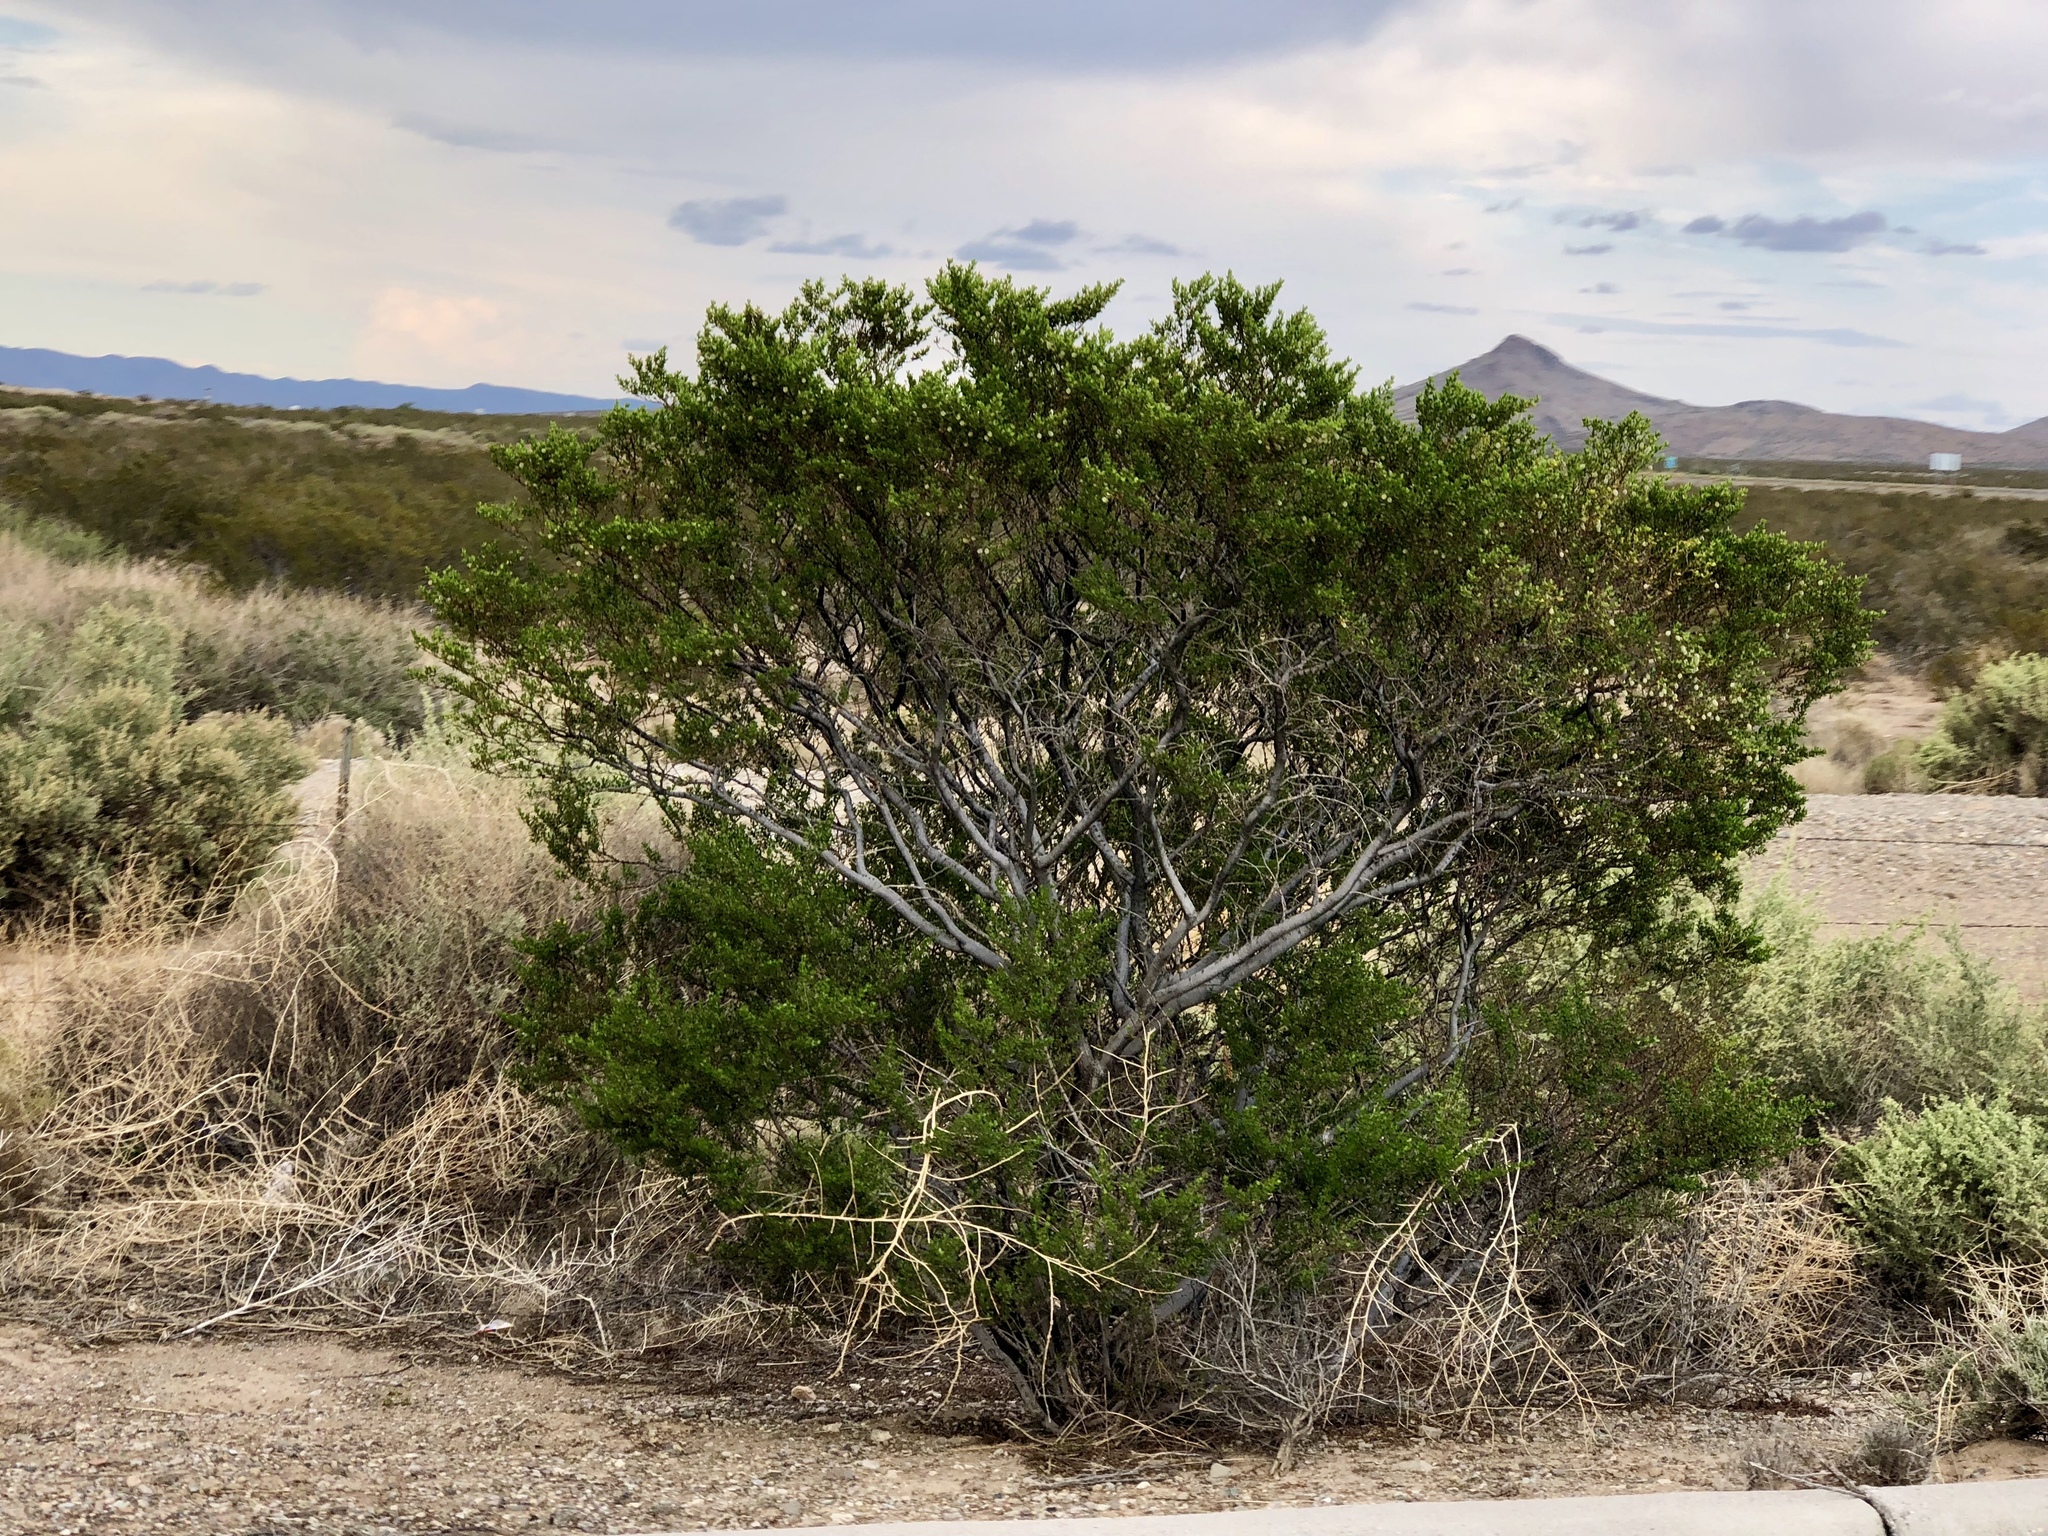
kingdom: Plantae
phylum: Tracheophyta
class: Magnoliopsida
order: Zygophyllales
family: Zygophyllaceae
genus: Larrea
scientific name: Larrea tridentata
